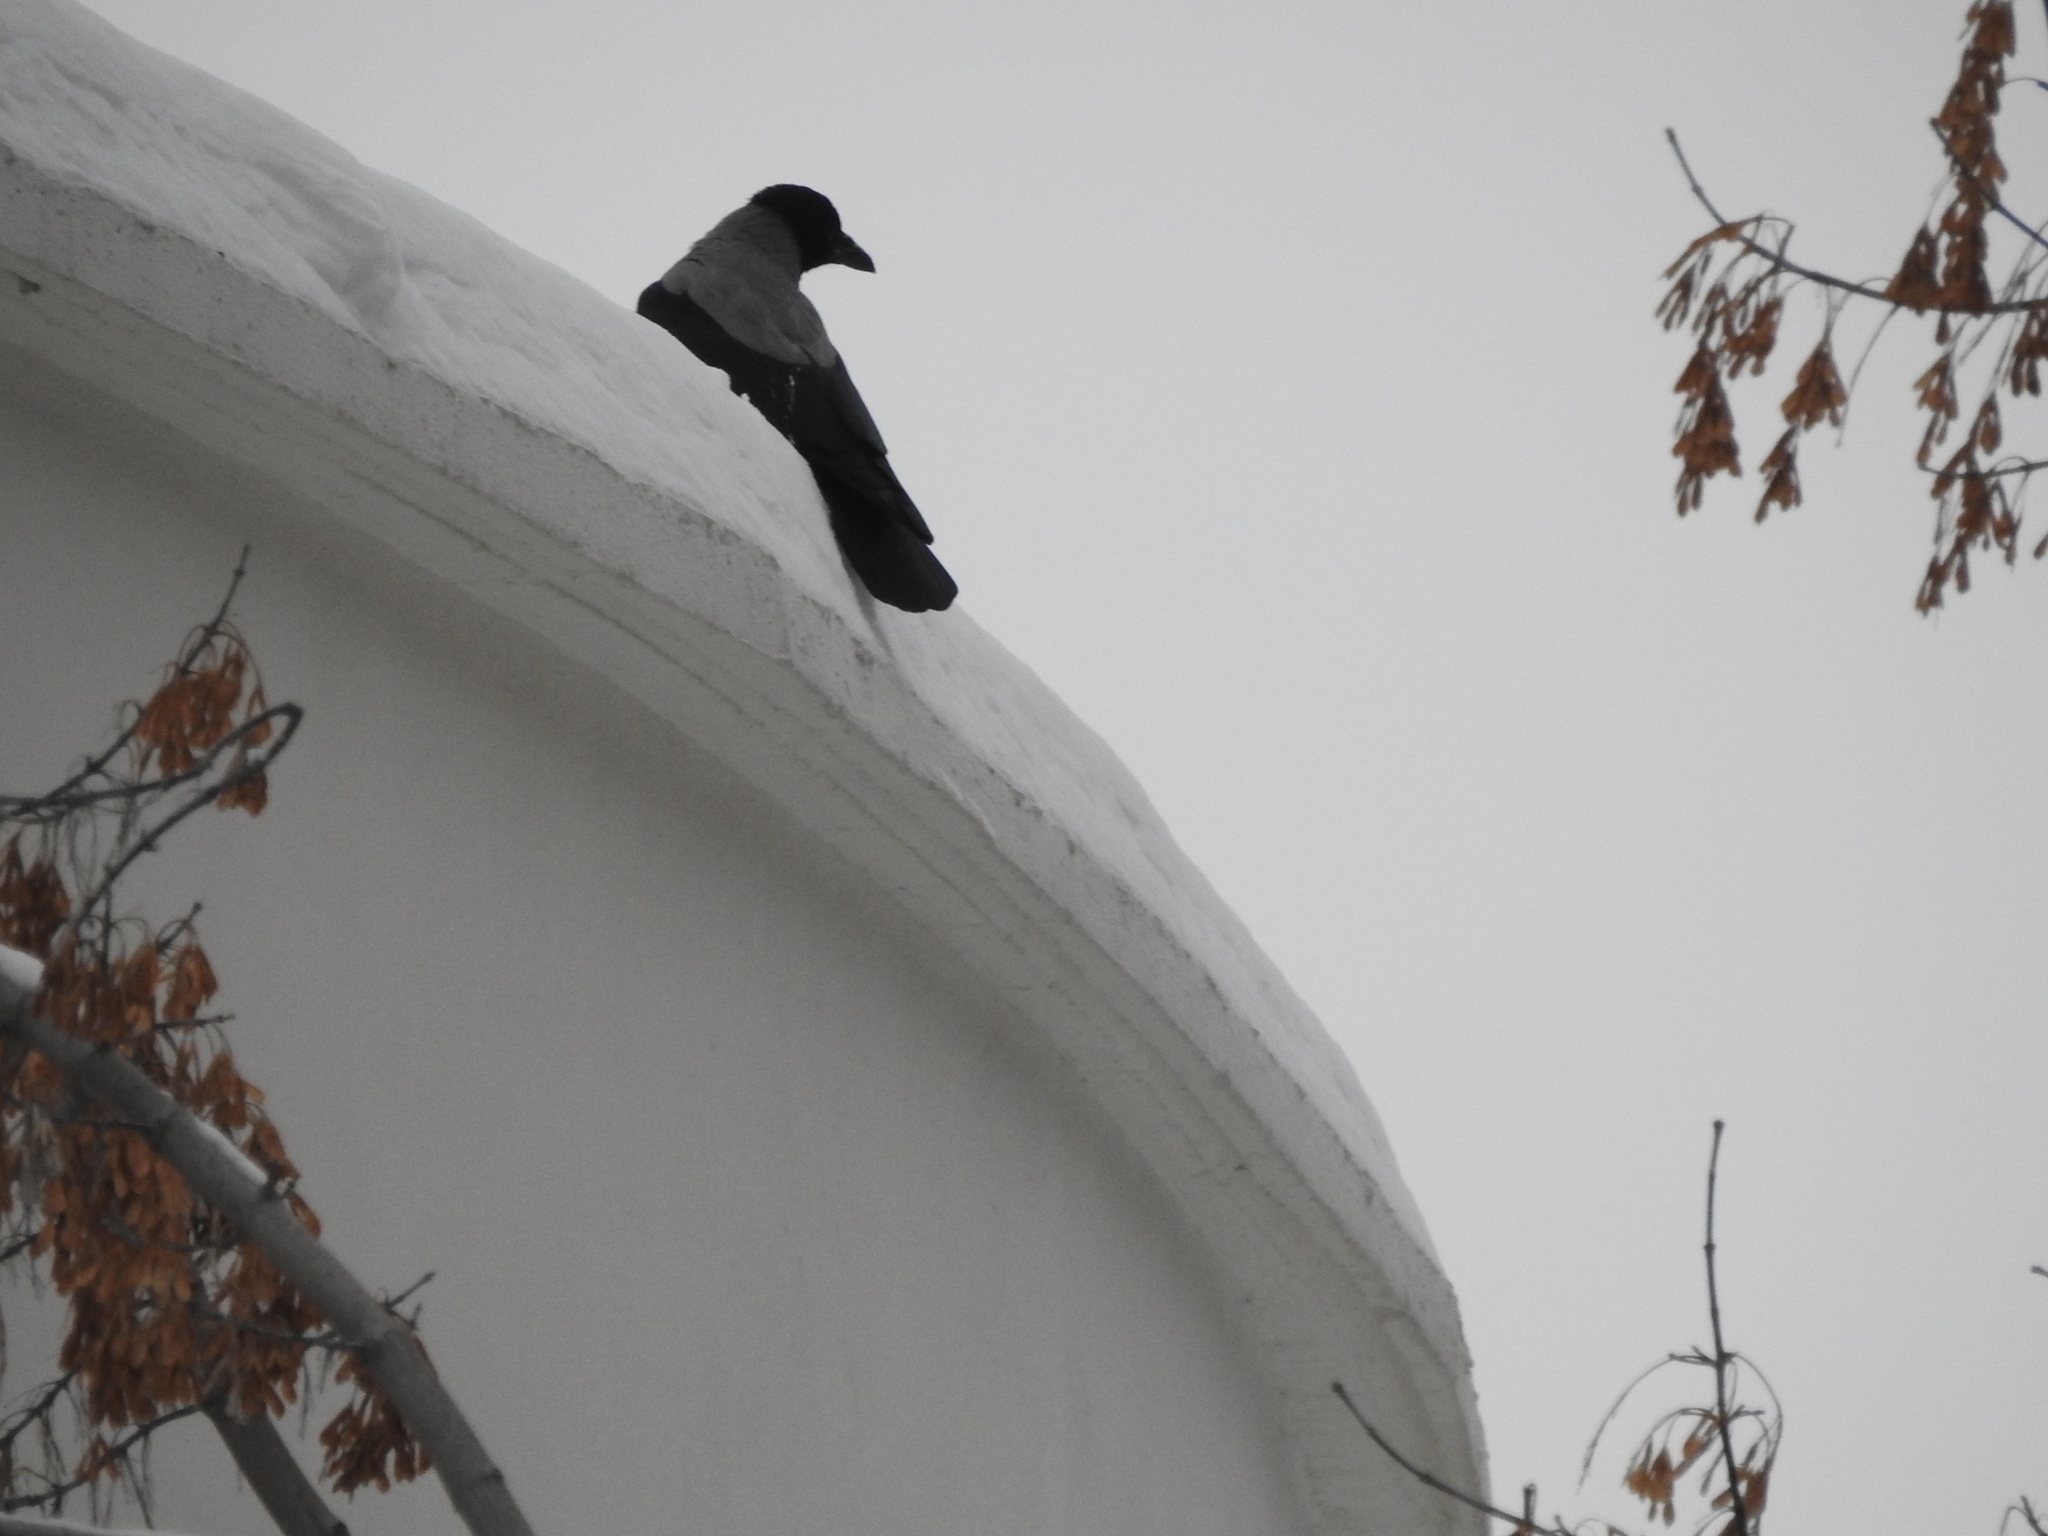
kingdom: Animalia
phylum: Chordata
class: Aves
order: Passeriformes
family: Corvidae
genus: Corvus
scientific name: Corvus cornix
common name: Hooded crow
